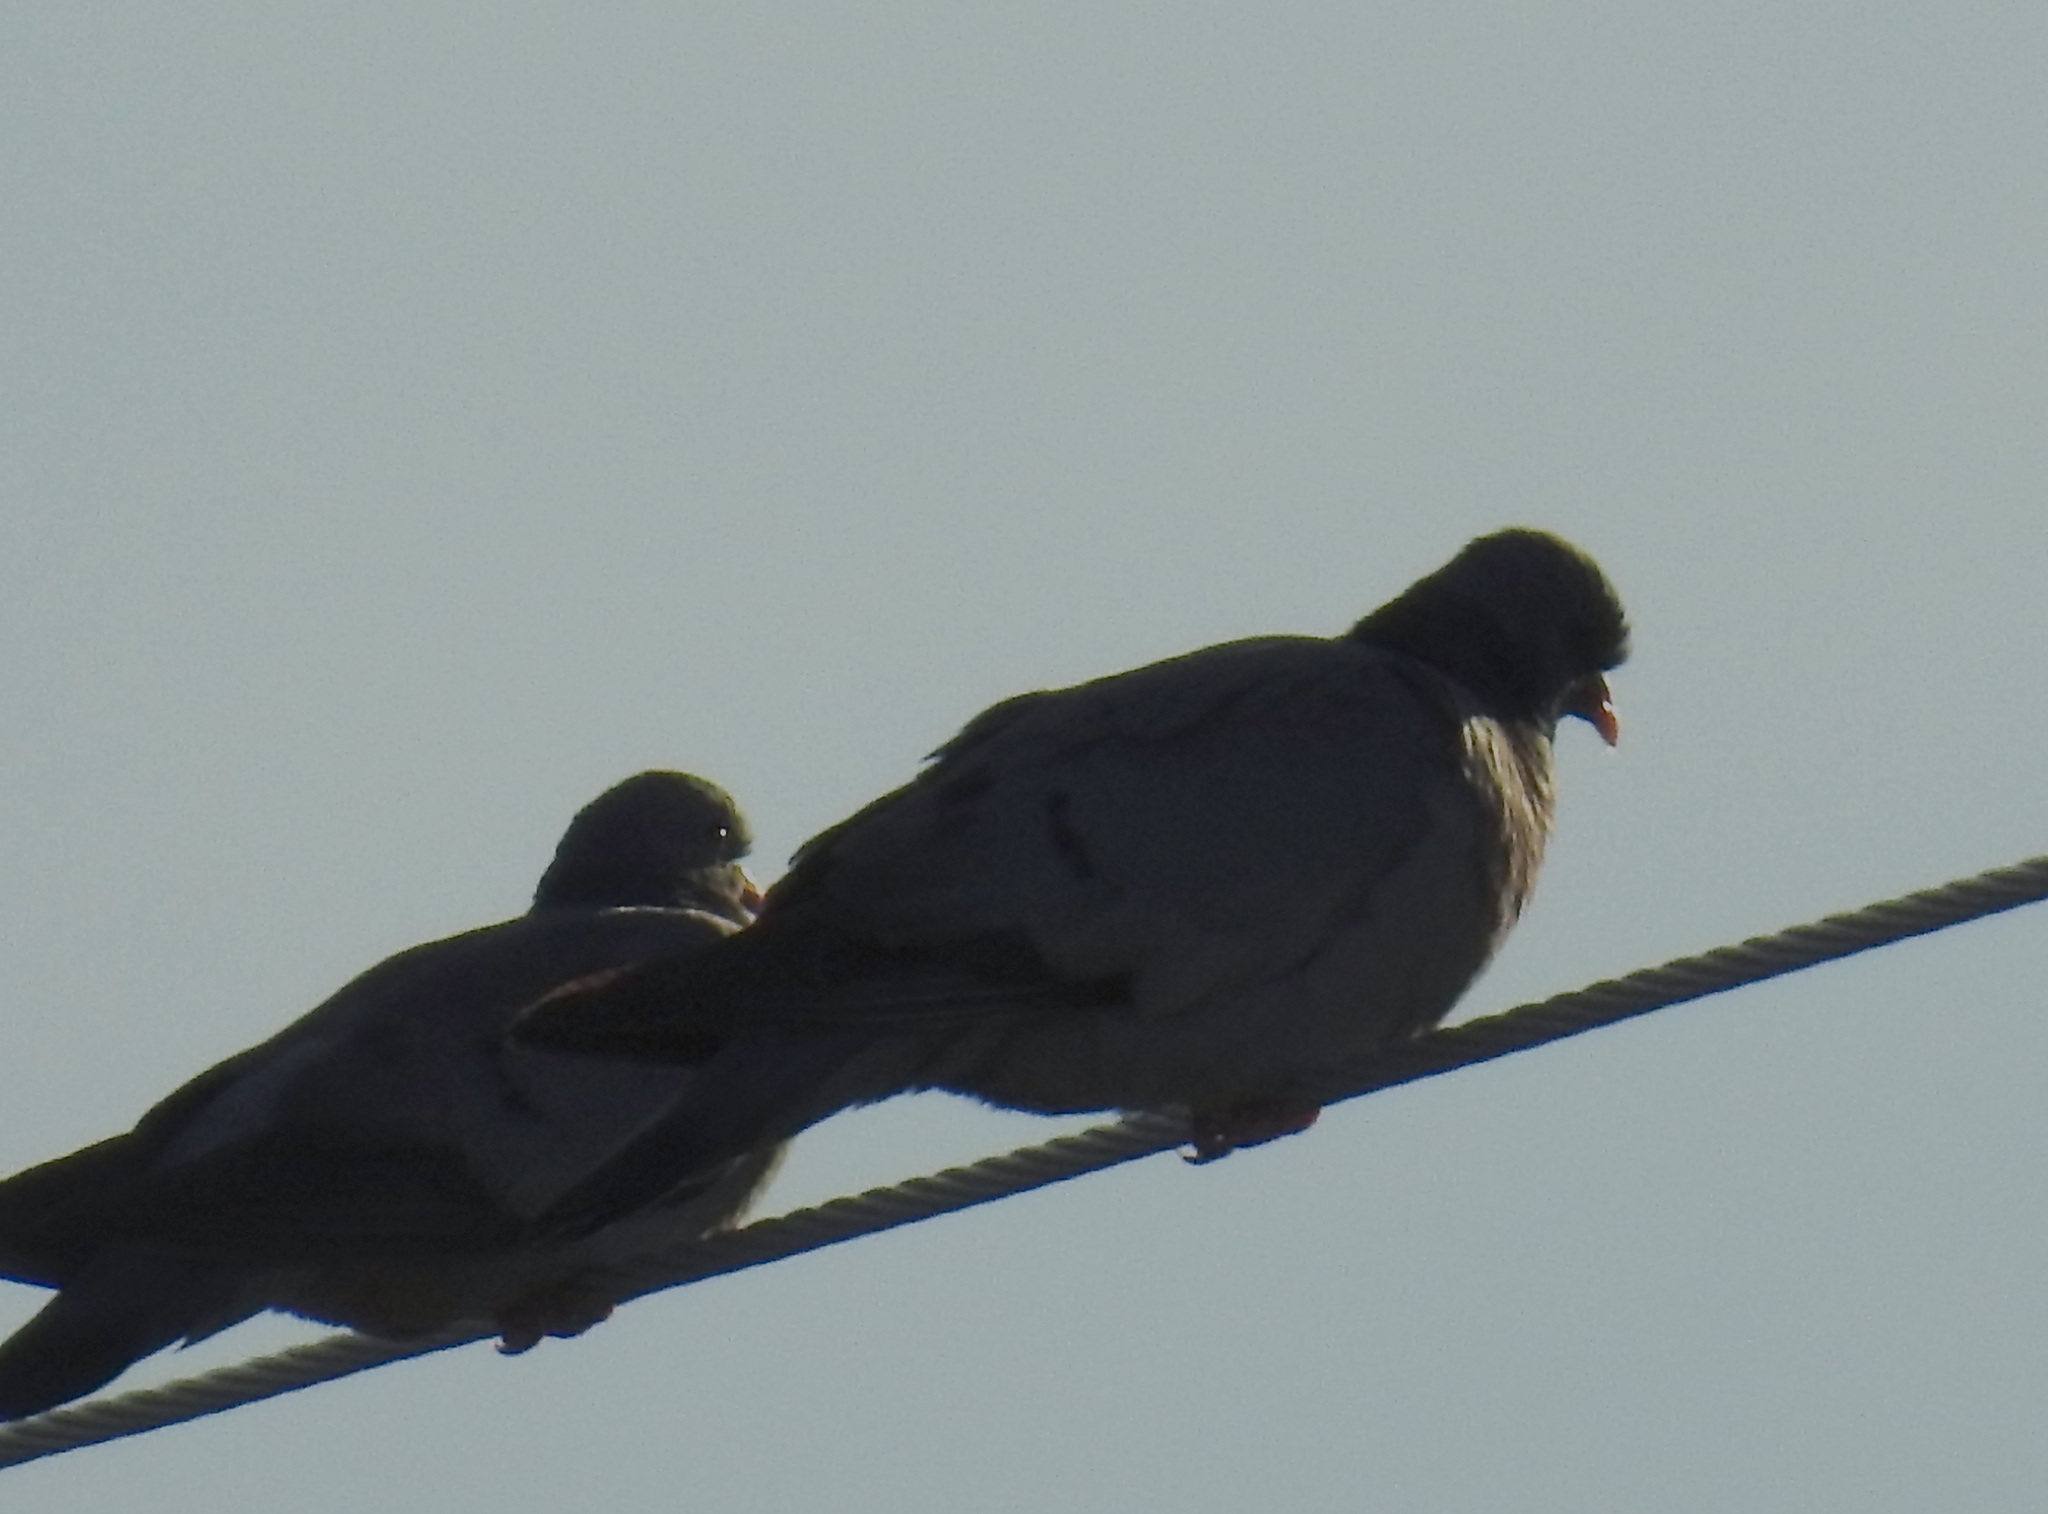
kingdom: Animalia
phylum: Chordata
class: Aves
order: Columbiformes
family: Columbidae
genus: Columba
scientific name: Columba oenas
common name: Stock dove
